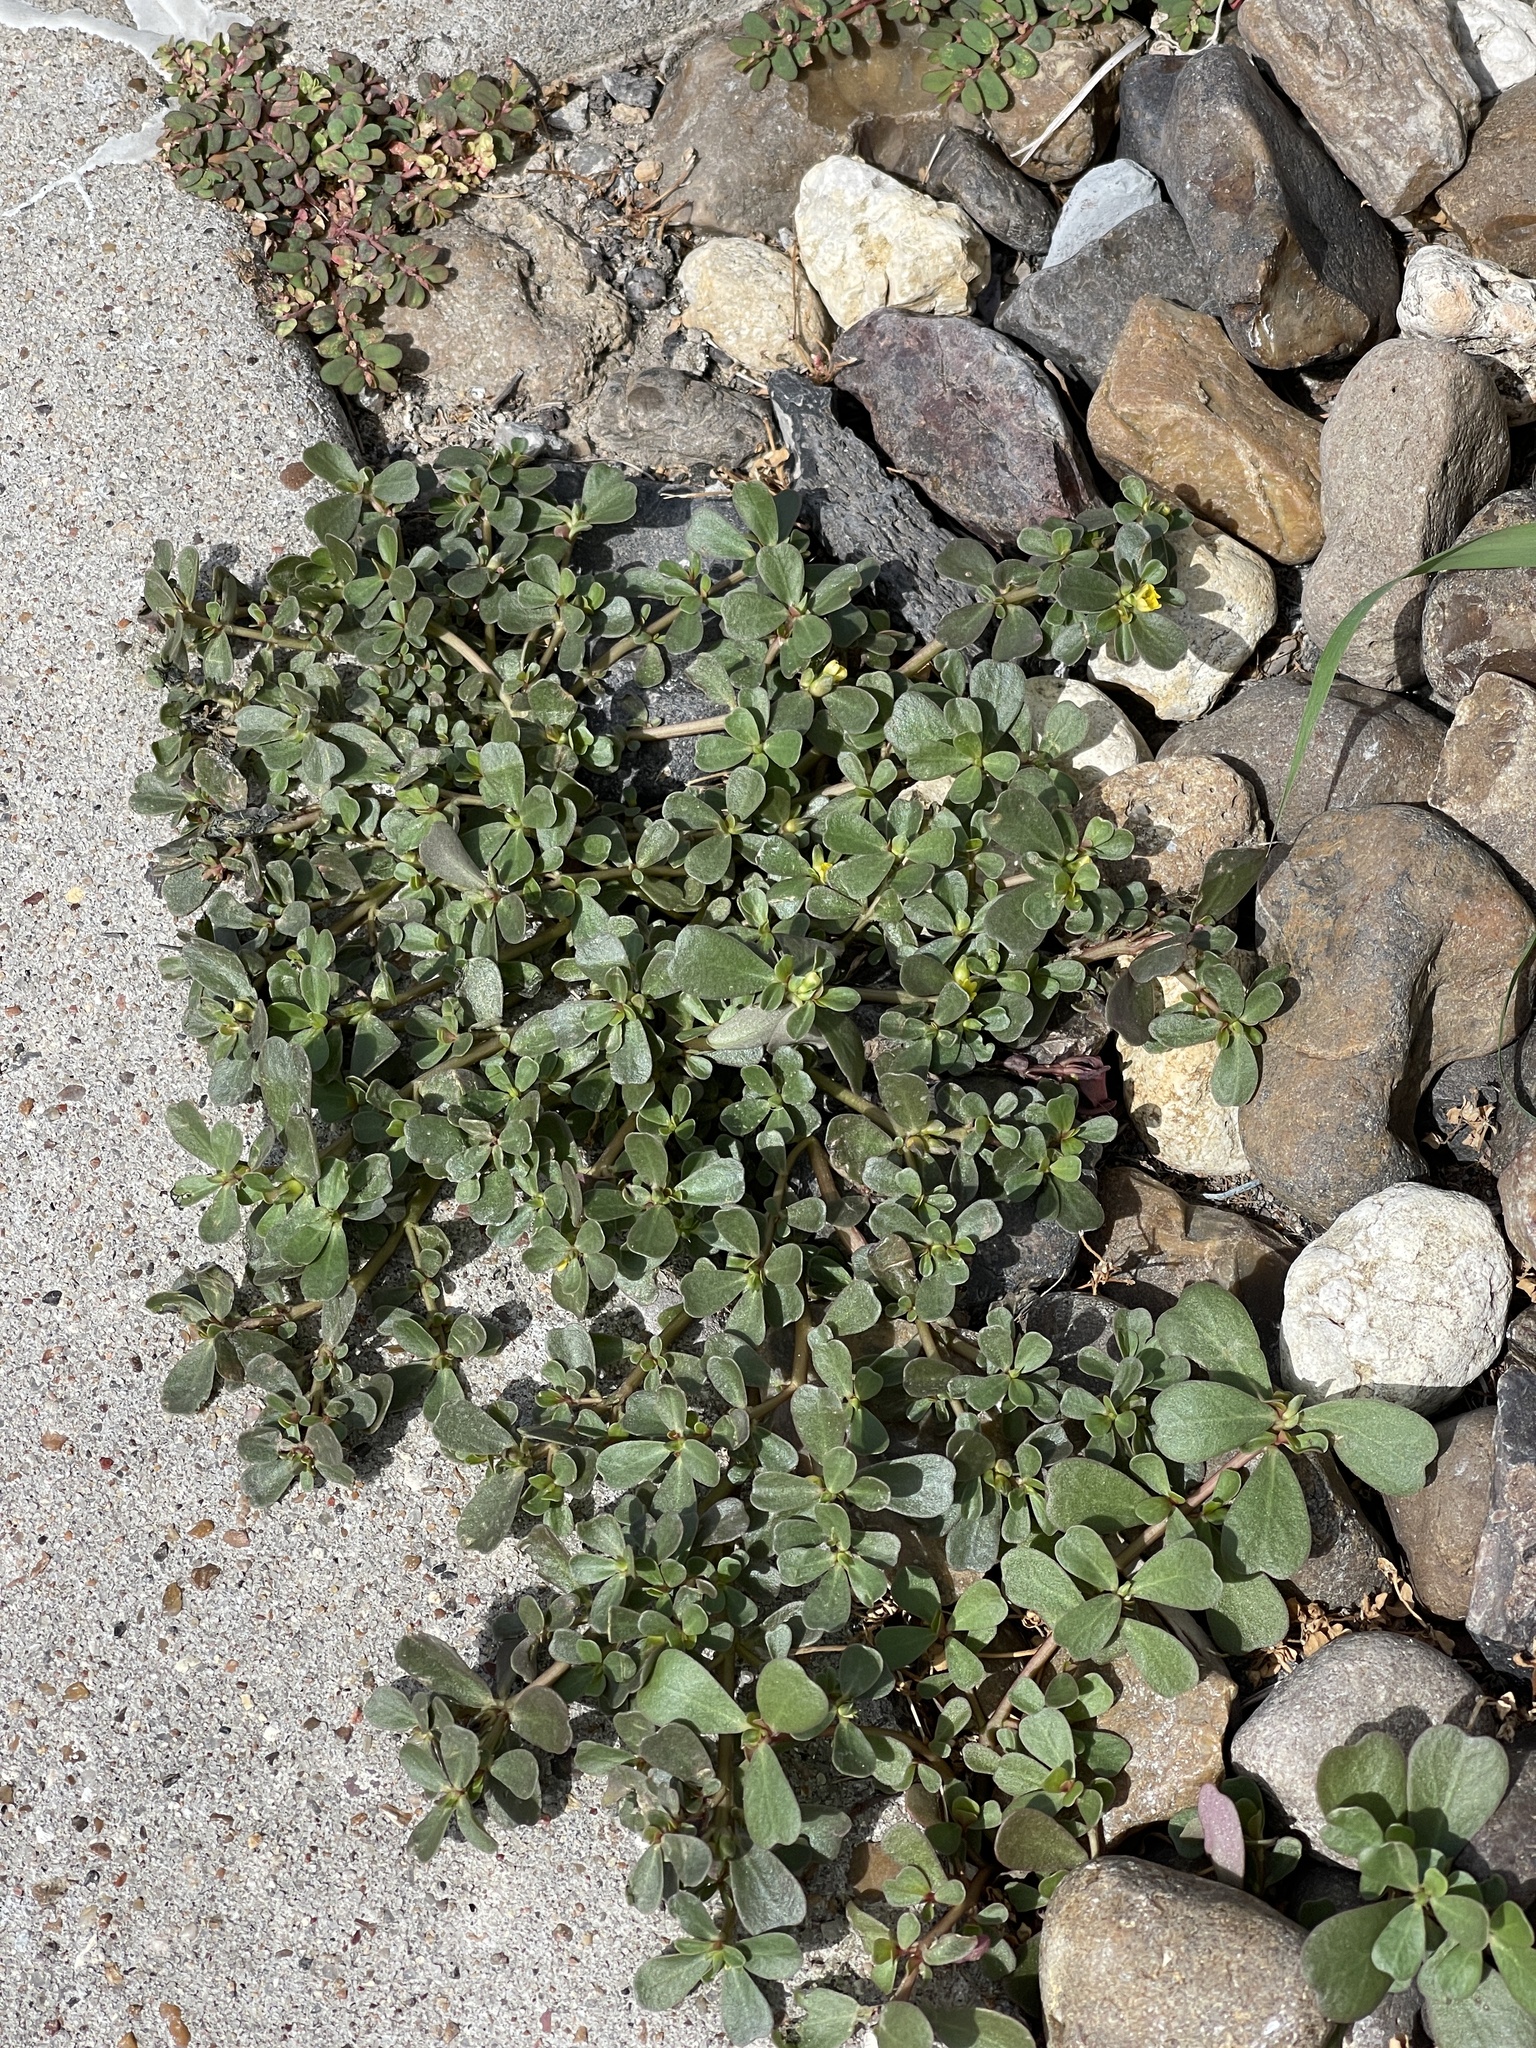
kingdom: Plantae
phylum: Tracheophyta
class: Magnoliopsida
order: Caryophyllales
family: Portulacaceae
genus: Portulaca
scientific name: Portulaca oleracea
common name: Common purslane
